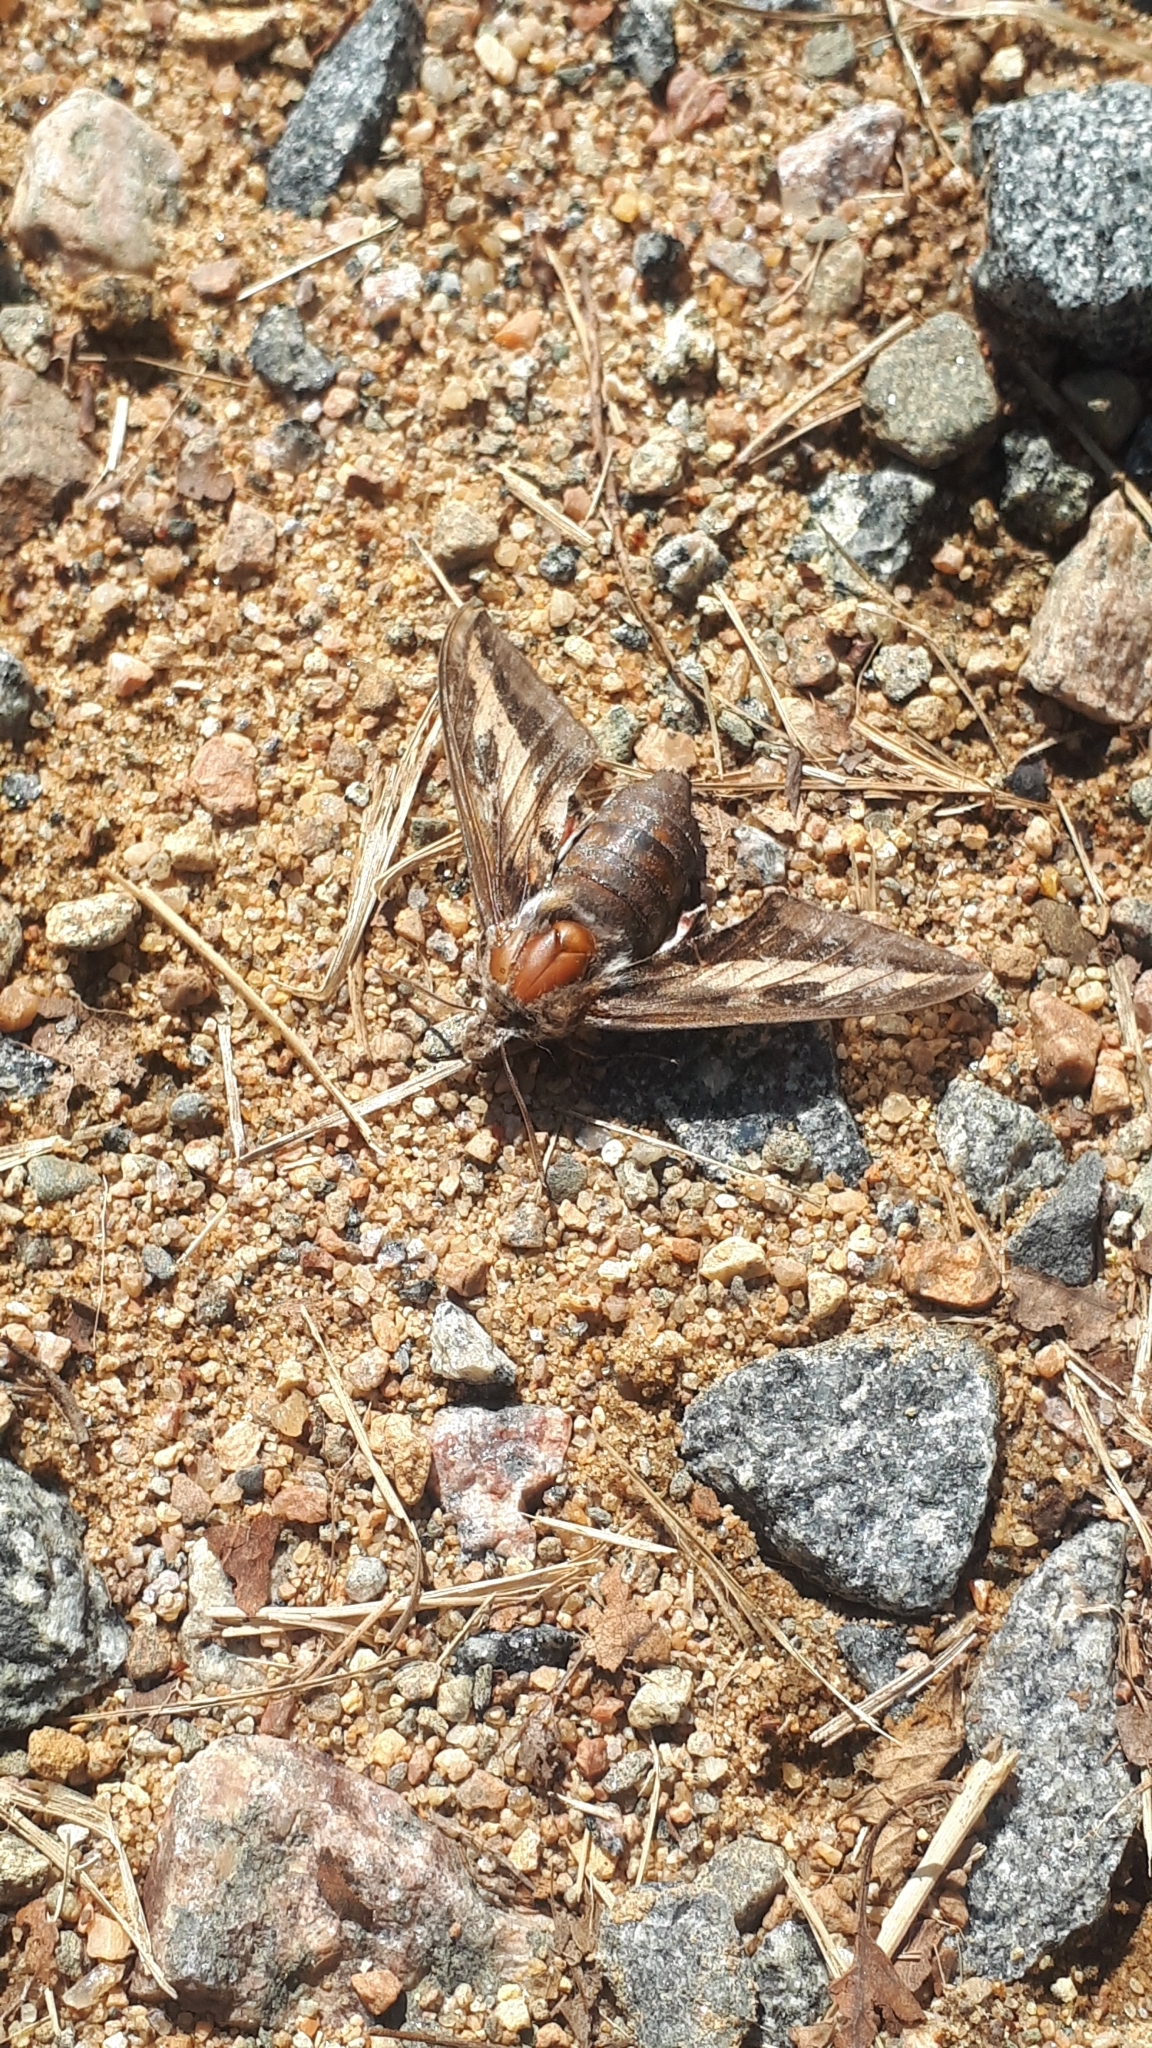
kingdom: Animalia
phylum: Arthropoda
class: Insecta
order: Lepidoptera
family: Sphingidae
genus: Hyles
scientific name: Hyles gallii
